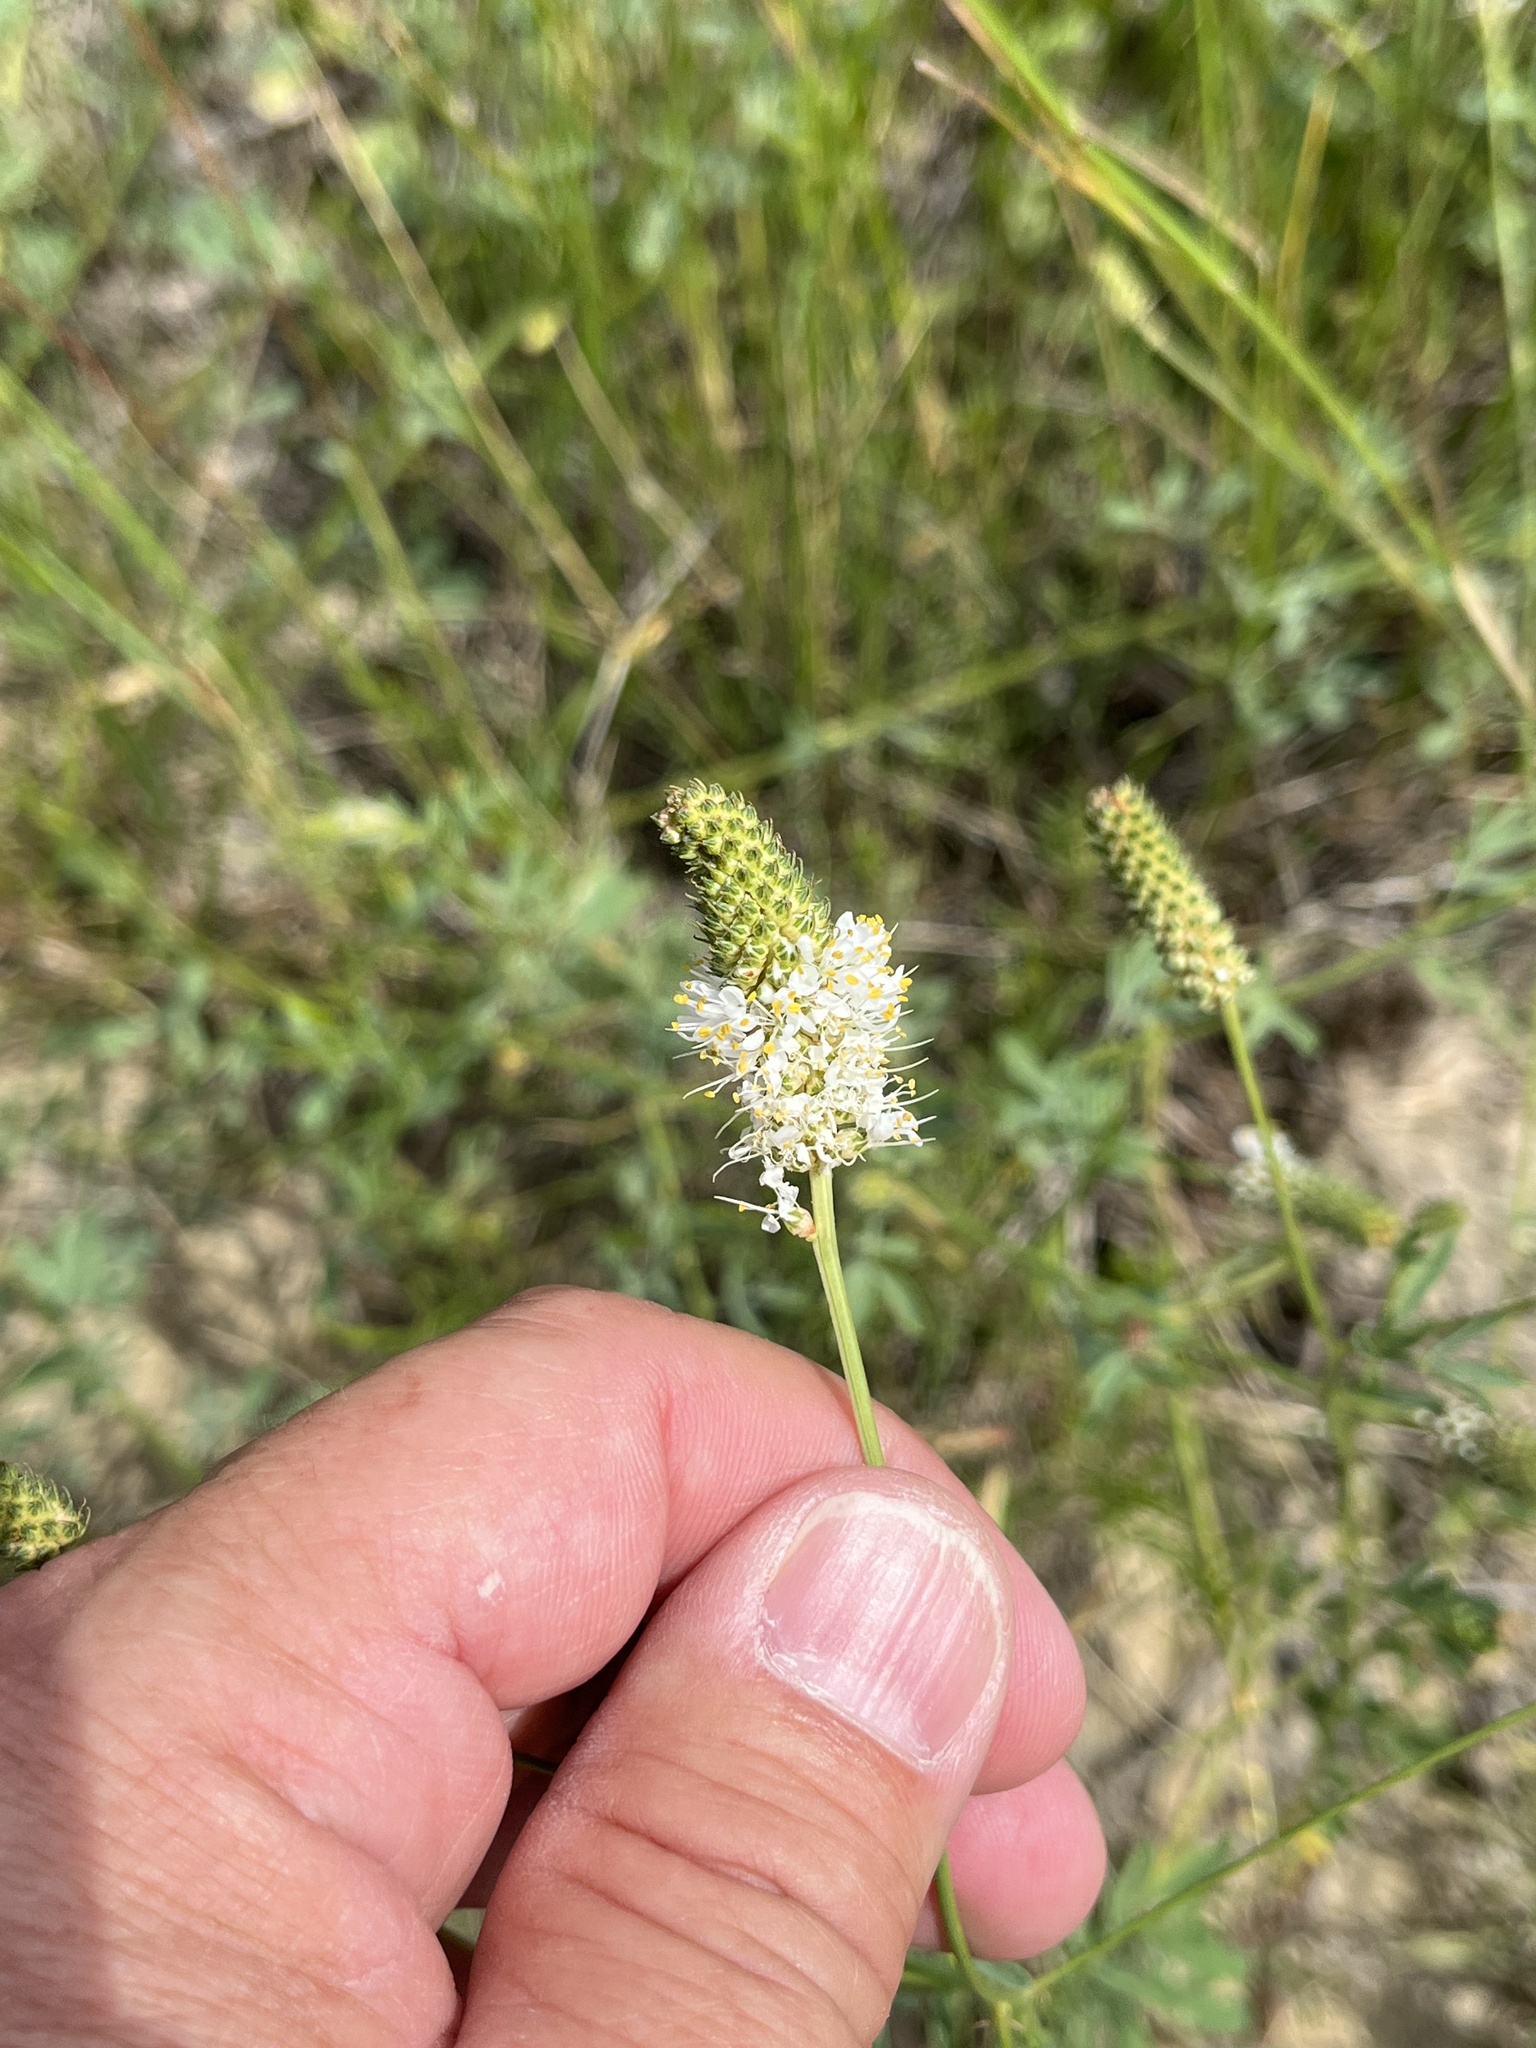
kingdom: Plantae
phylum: Tracheophyta
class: Magnoliopsida
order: Fabales
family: Fabaceae
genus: Dalea
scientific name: Dalea candida
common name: White prairie-clover
